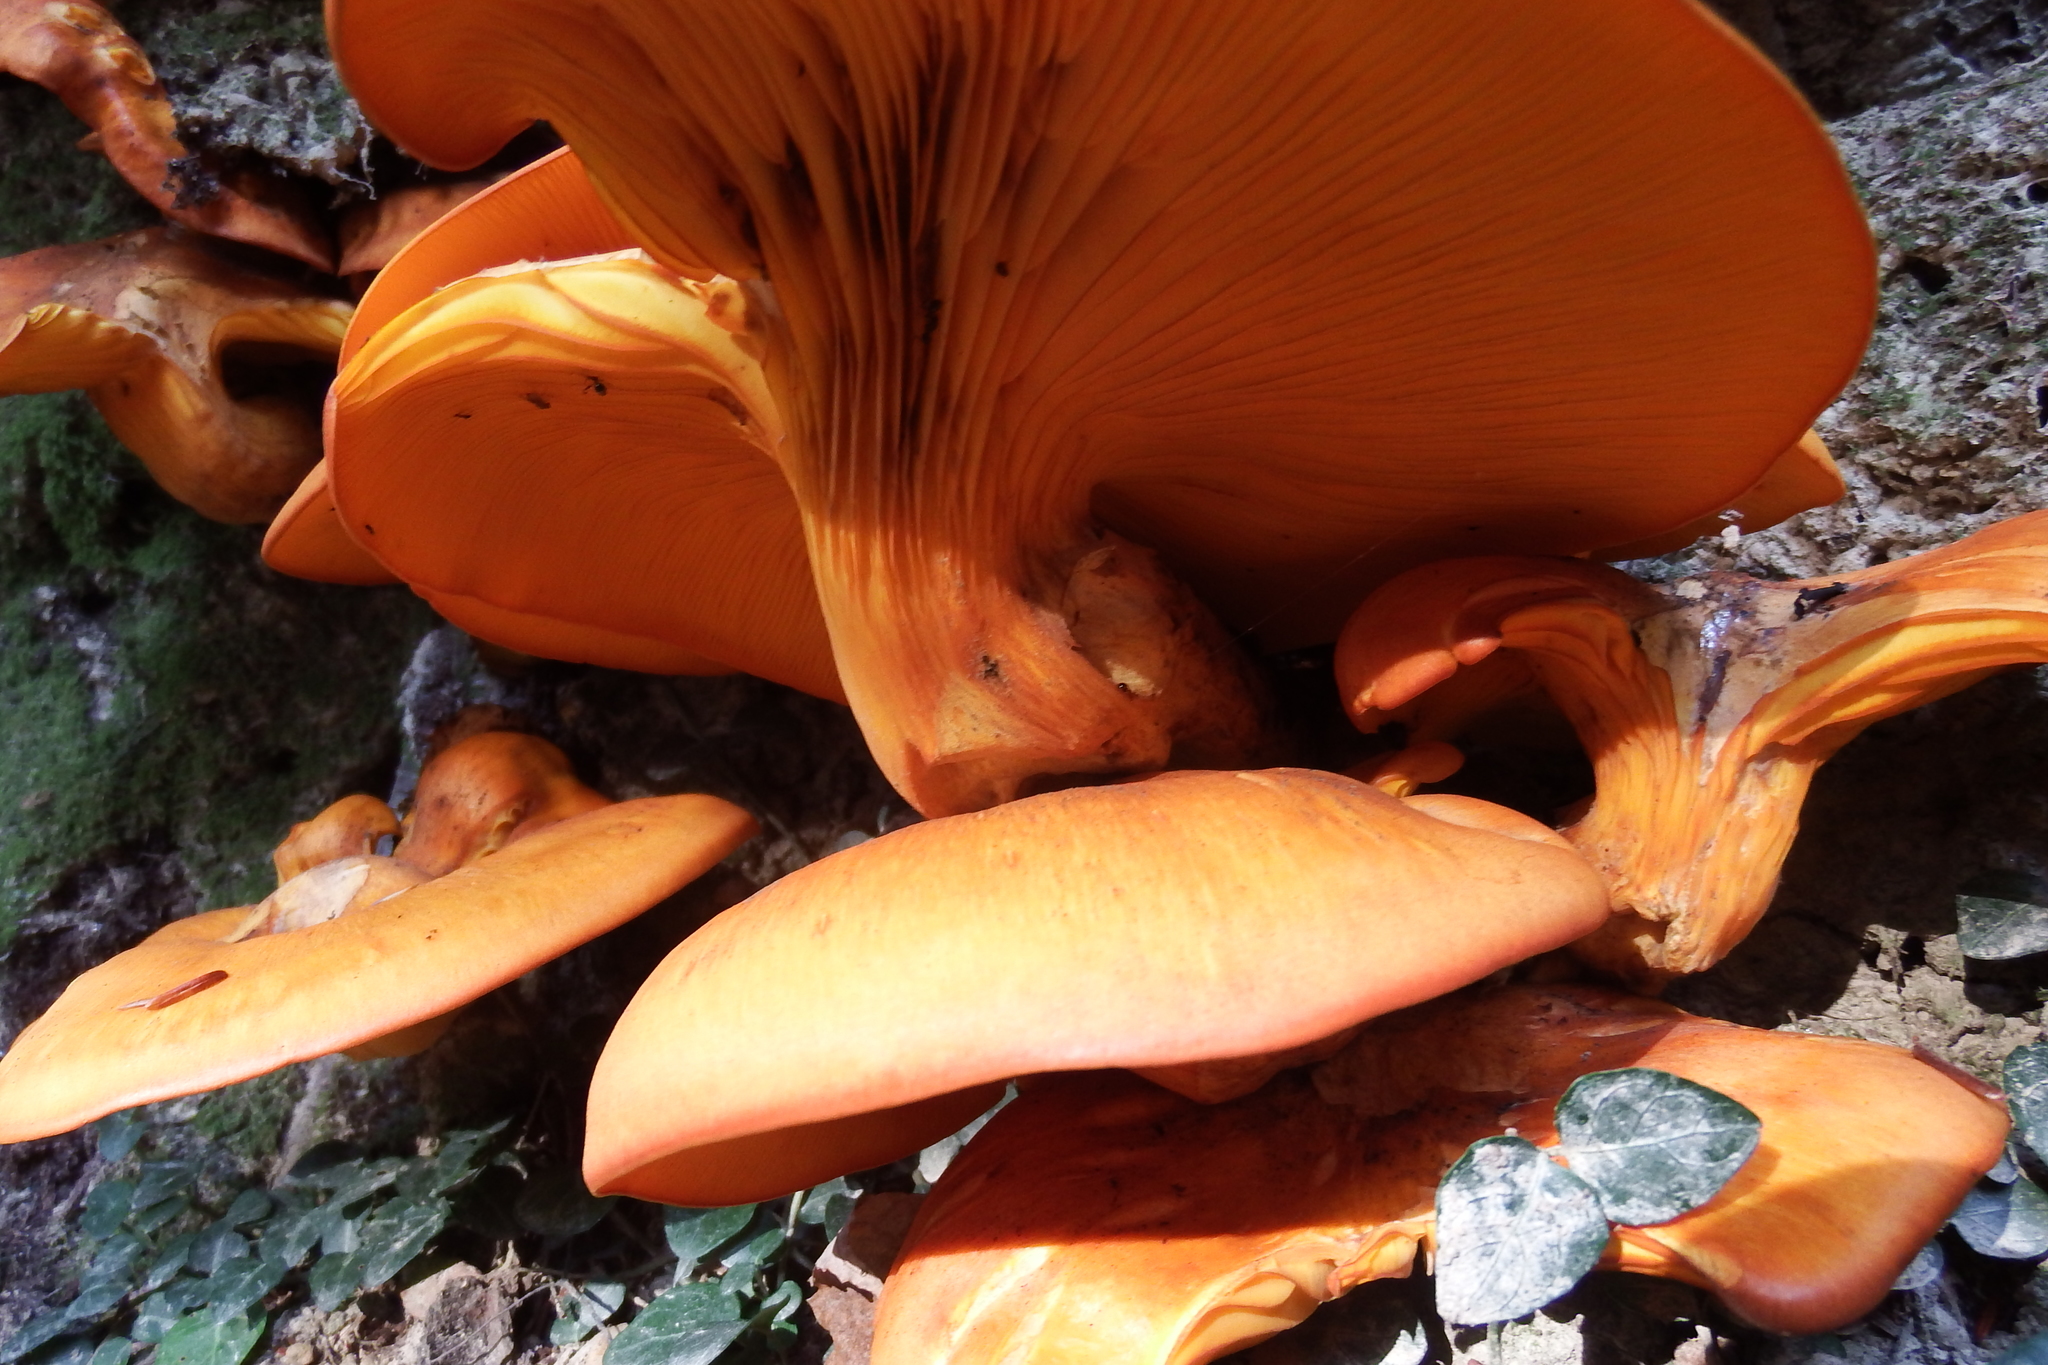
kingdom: Fungi
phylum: Basidiomycota
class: Agaricomycetes
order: Agaricales
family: Omphalotaceae
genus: Omphalotus
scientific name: Omphalotus illudens
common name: Jack o lantern
